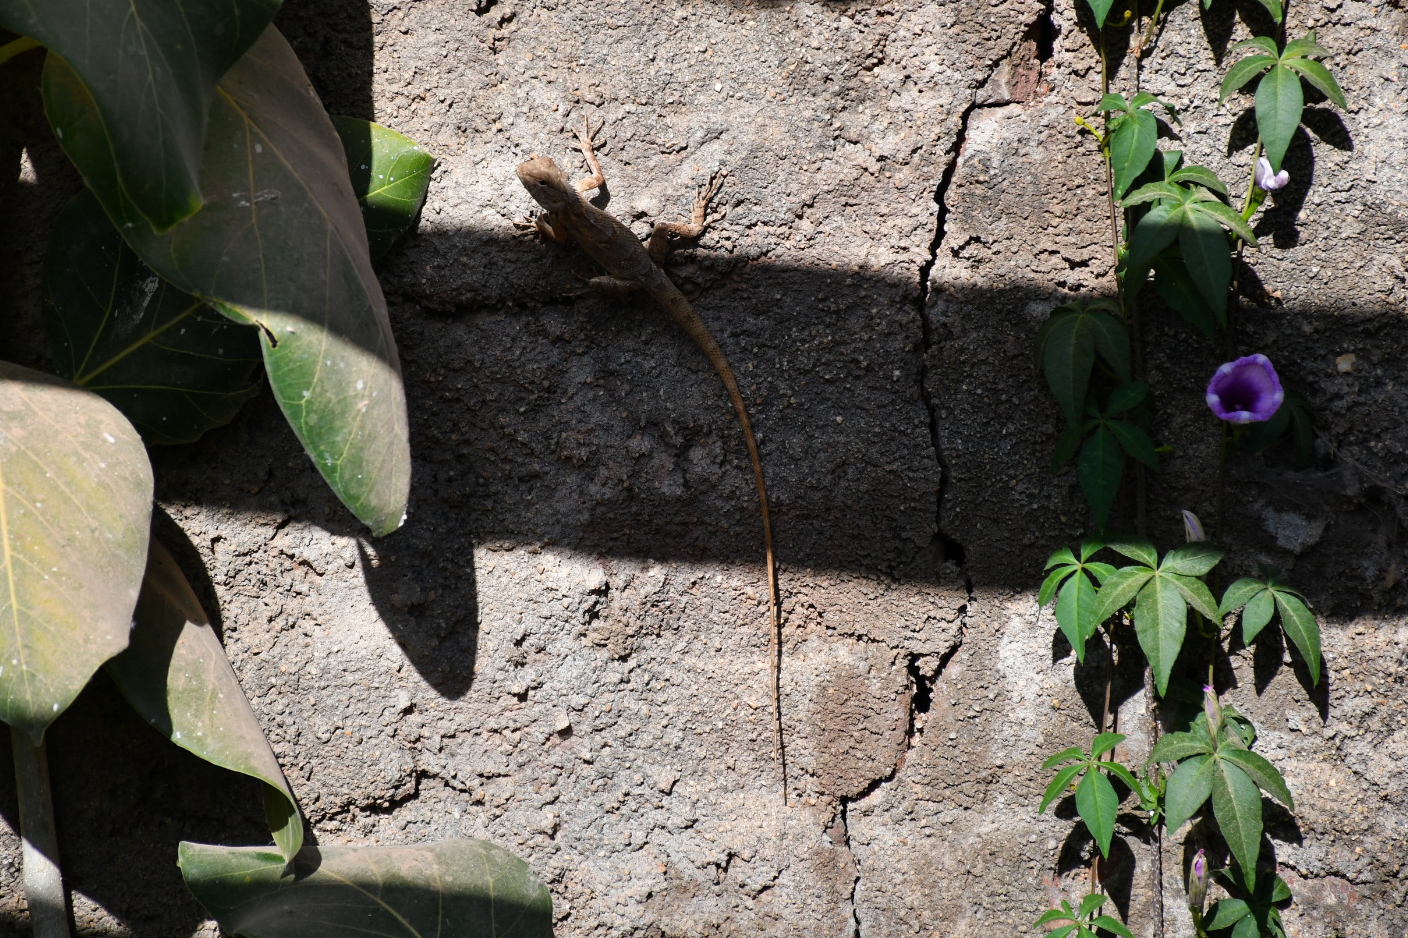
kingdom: Animalia
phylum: Chordata
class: Squamata
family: Agamidae
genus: Calotes
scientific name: Calotes versicolor
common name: Oriental garden lizard
